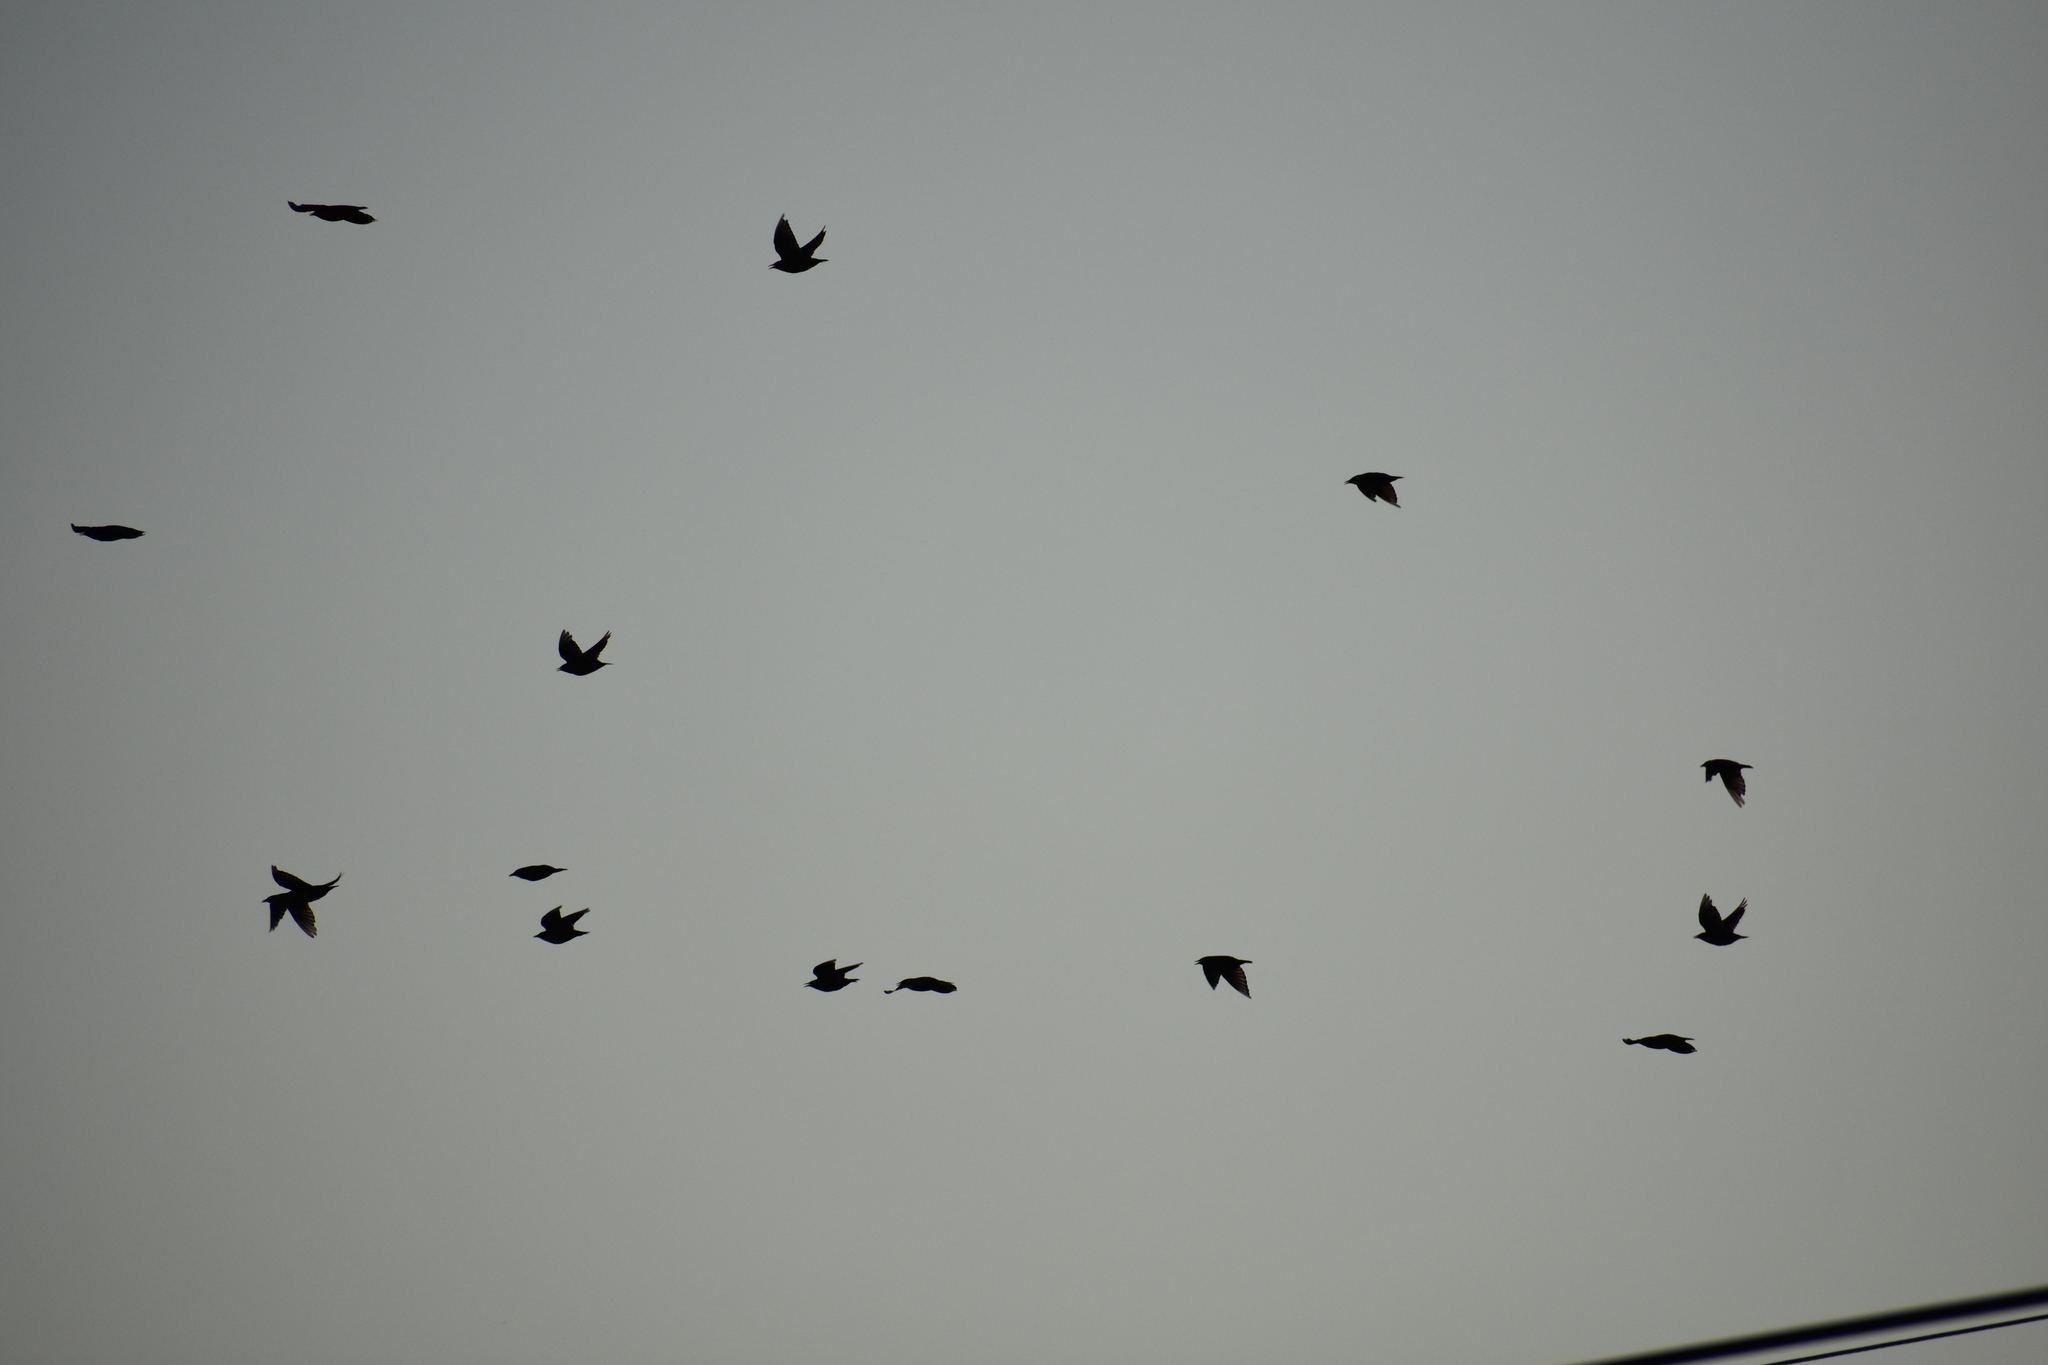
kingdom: Animalia
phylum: Chordata
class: Aves
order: Passeriformes
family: Sturnidae
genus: Sturnus
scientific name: Sturnus vulgaris
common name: Common starling
